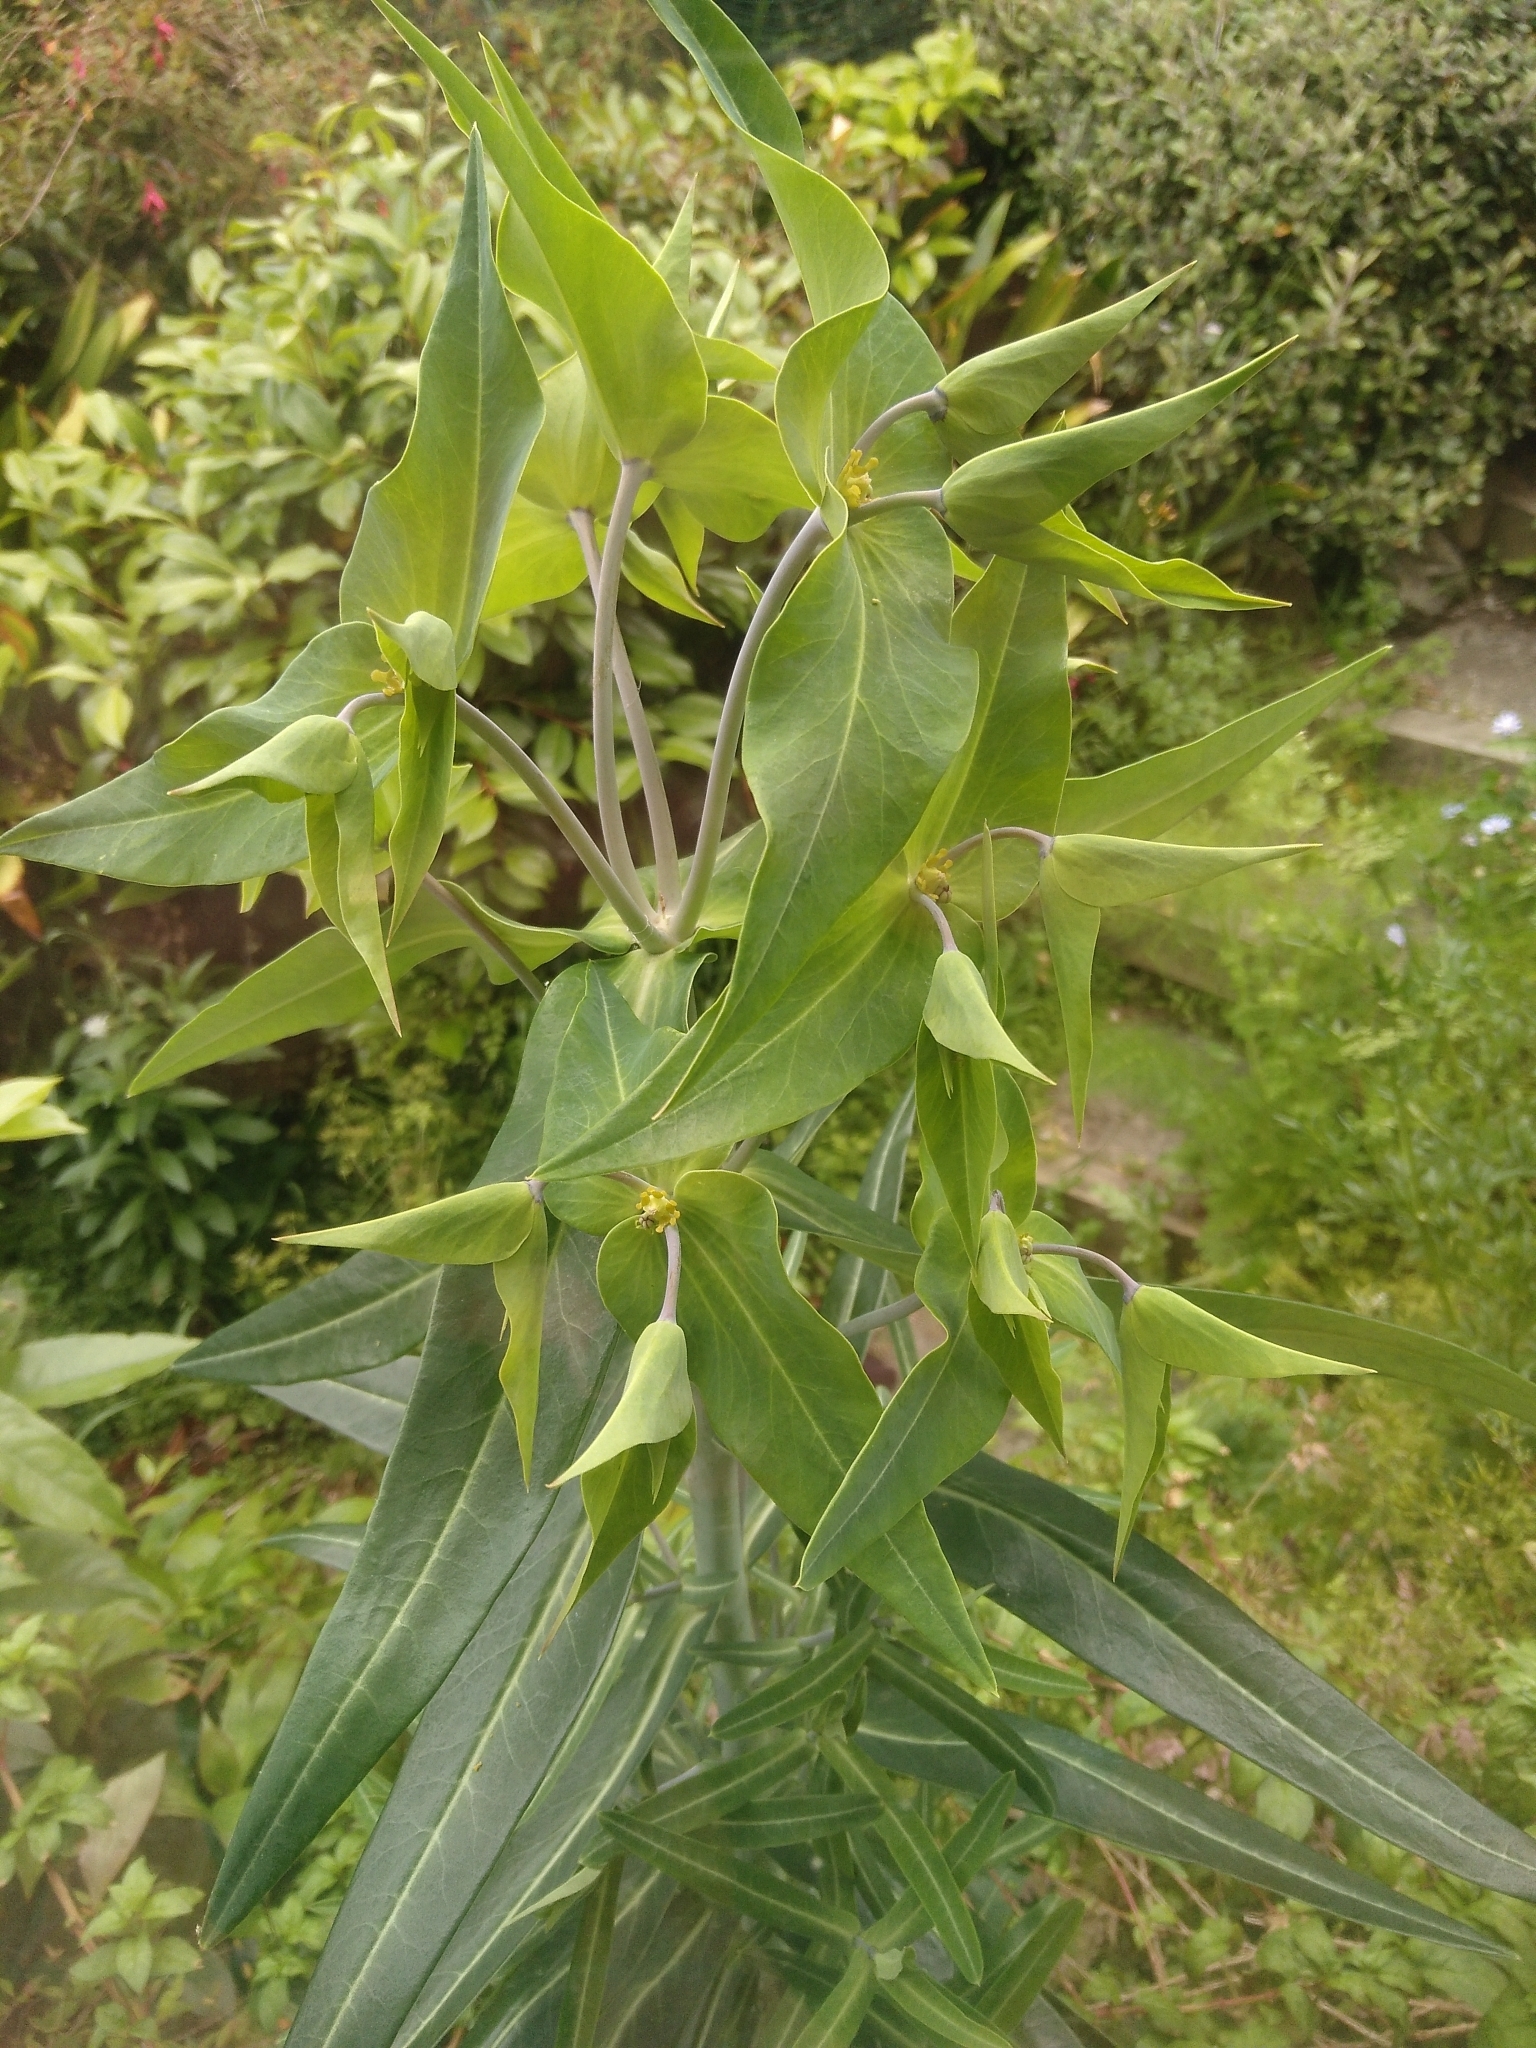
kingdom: Plantae
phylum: Tracheophyta
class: Magnoliopsida
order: Malpighiales
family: Euphorbiaceae
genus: Euphorbia
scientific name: Euphorbia lathyris
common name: Caper spurge
